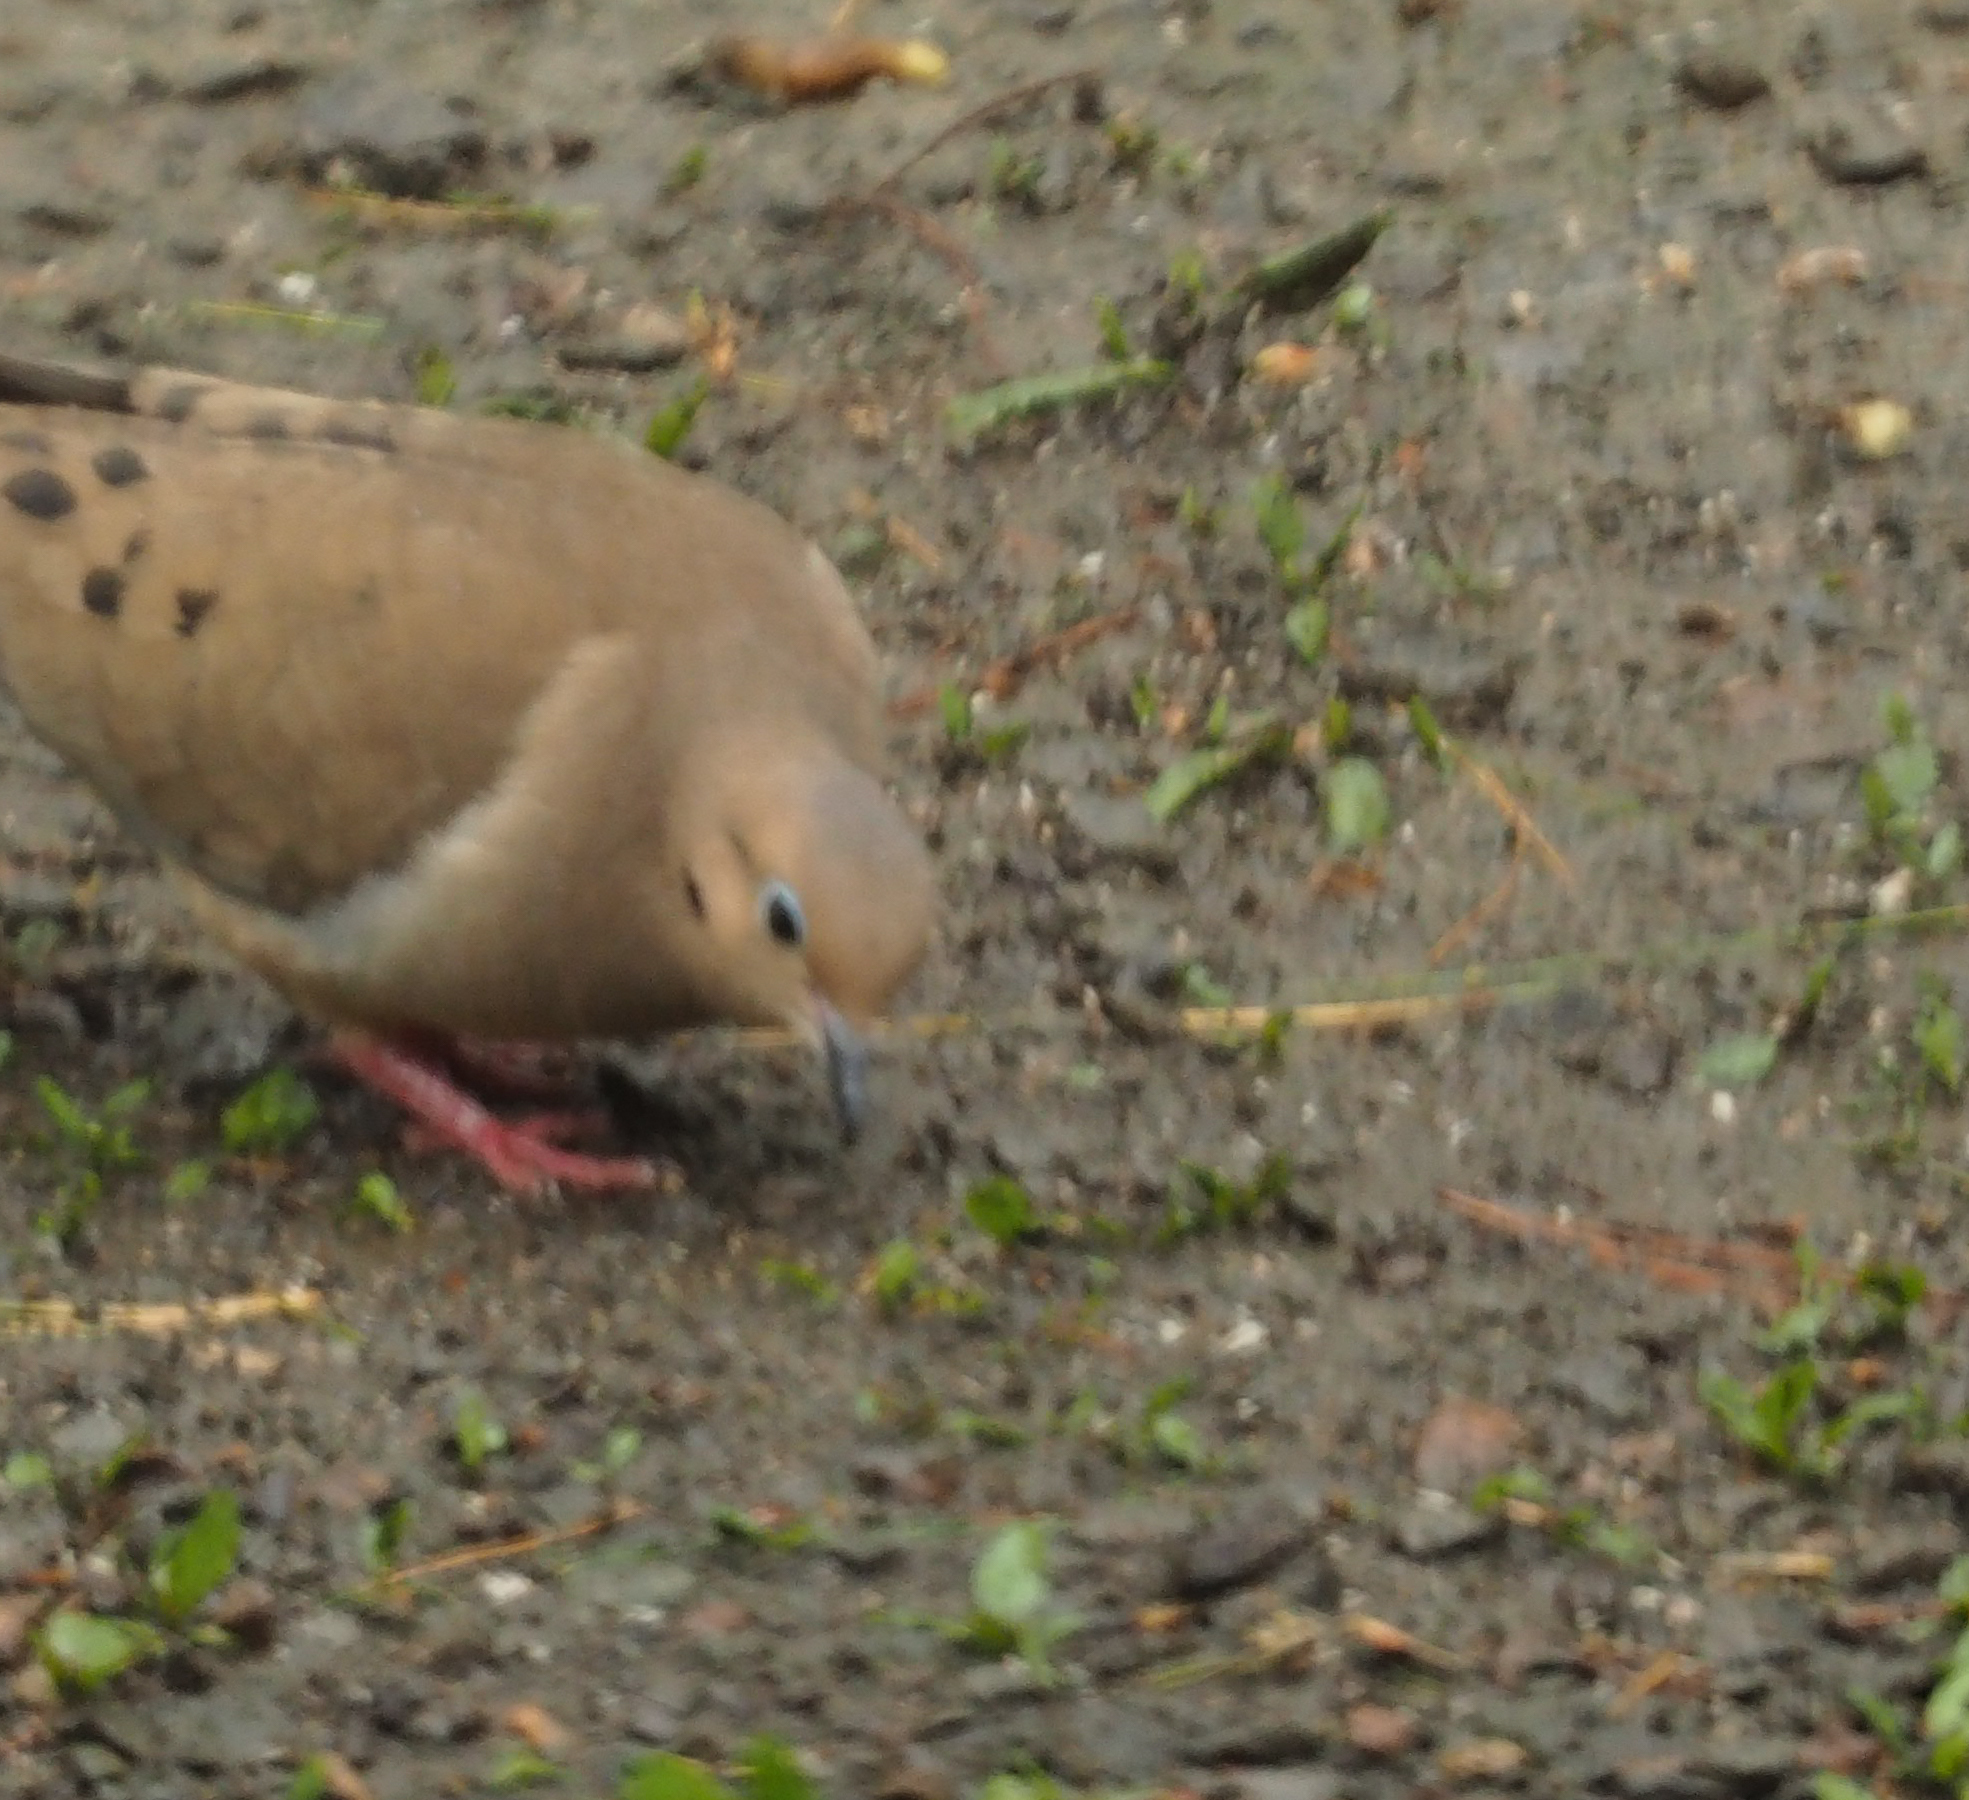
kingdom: Animalia
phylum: Chordata
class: Aves
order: Columbiformes
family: Columbidae
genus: Zenaida
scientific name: Zenaida macroura
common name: Mourning dove
